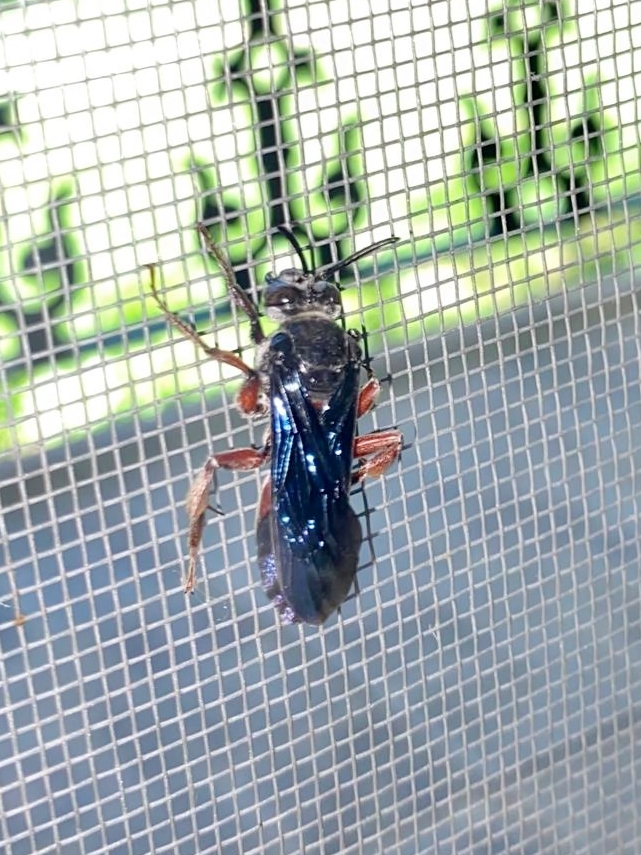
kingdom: Animalia
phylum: Arthropoda
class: Insecta
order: Hymenoptera
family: Apidae
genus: Rhathymus
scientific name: Rhathymus bicolor
